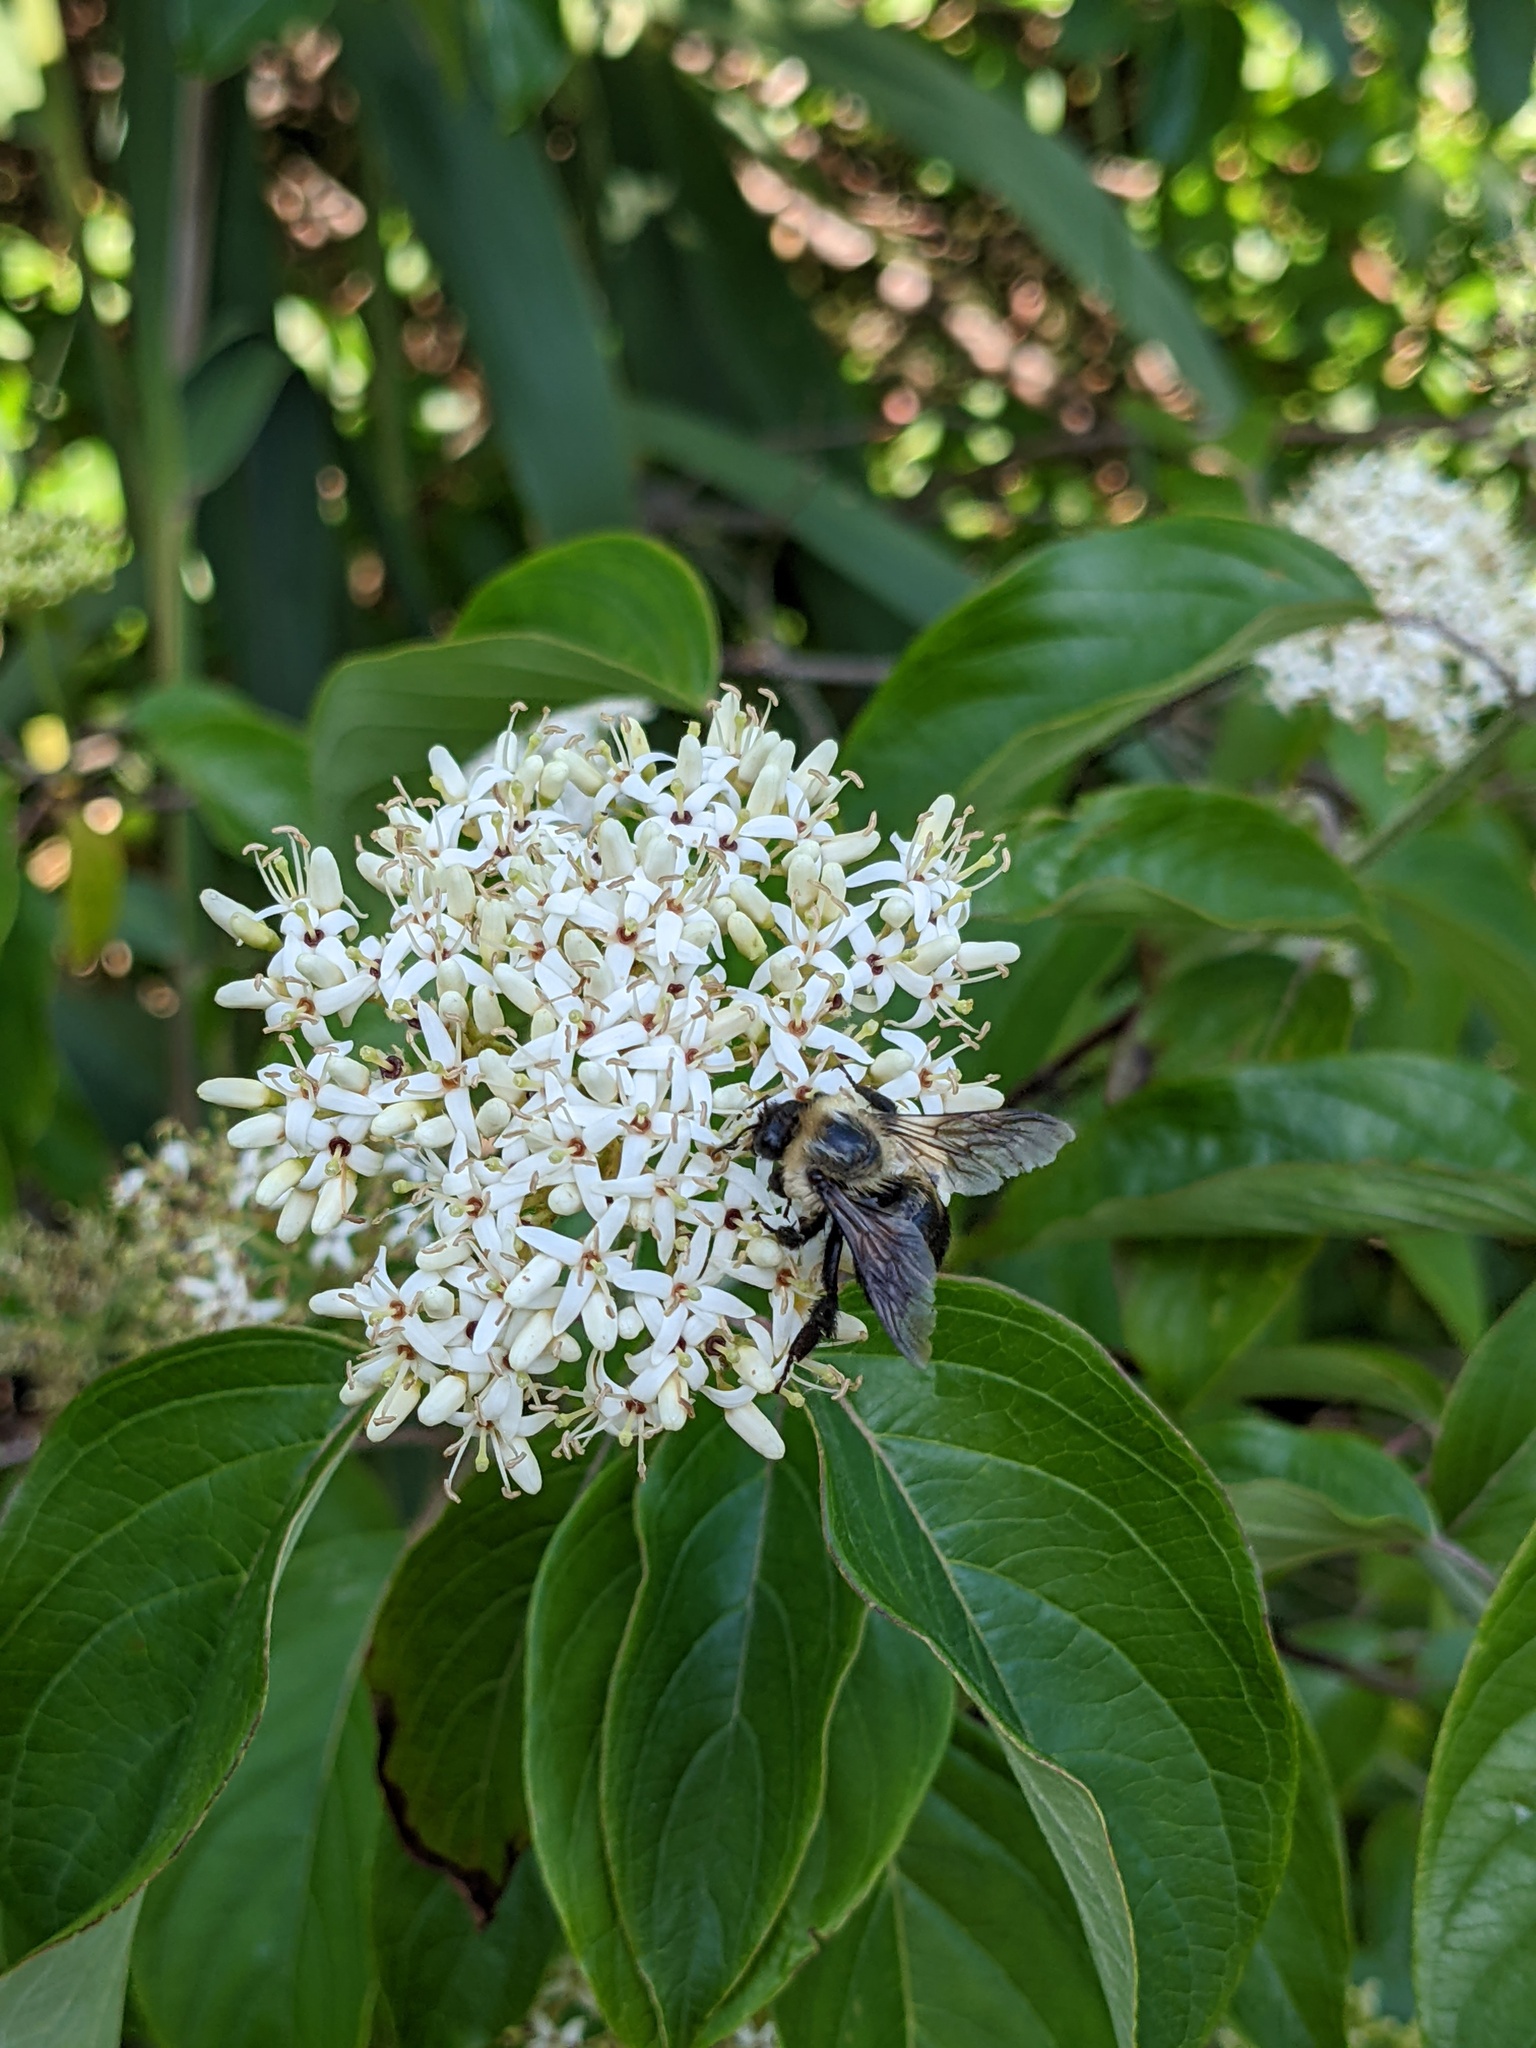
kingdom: Animalia
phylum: Arthropoda
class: Insecta
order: Hymenoptera
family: Apidae
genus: Bombus
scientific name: Bombus griseocollis
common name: Brown-belted bumble bee
